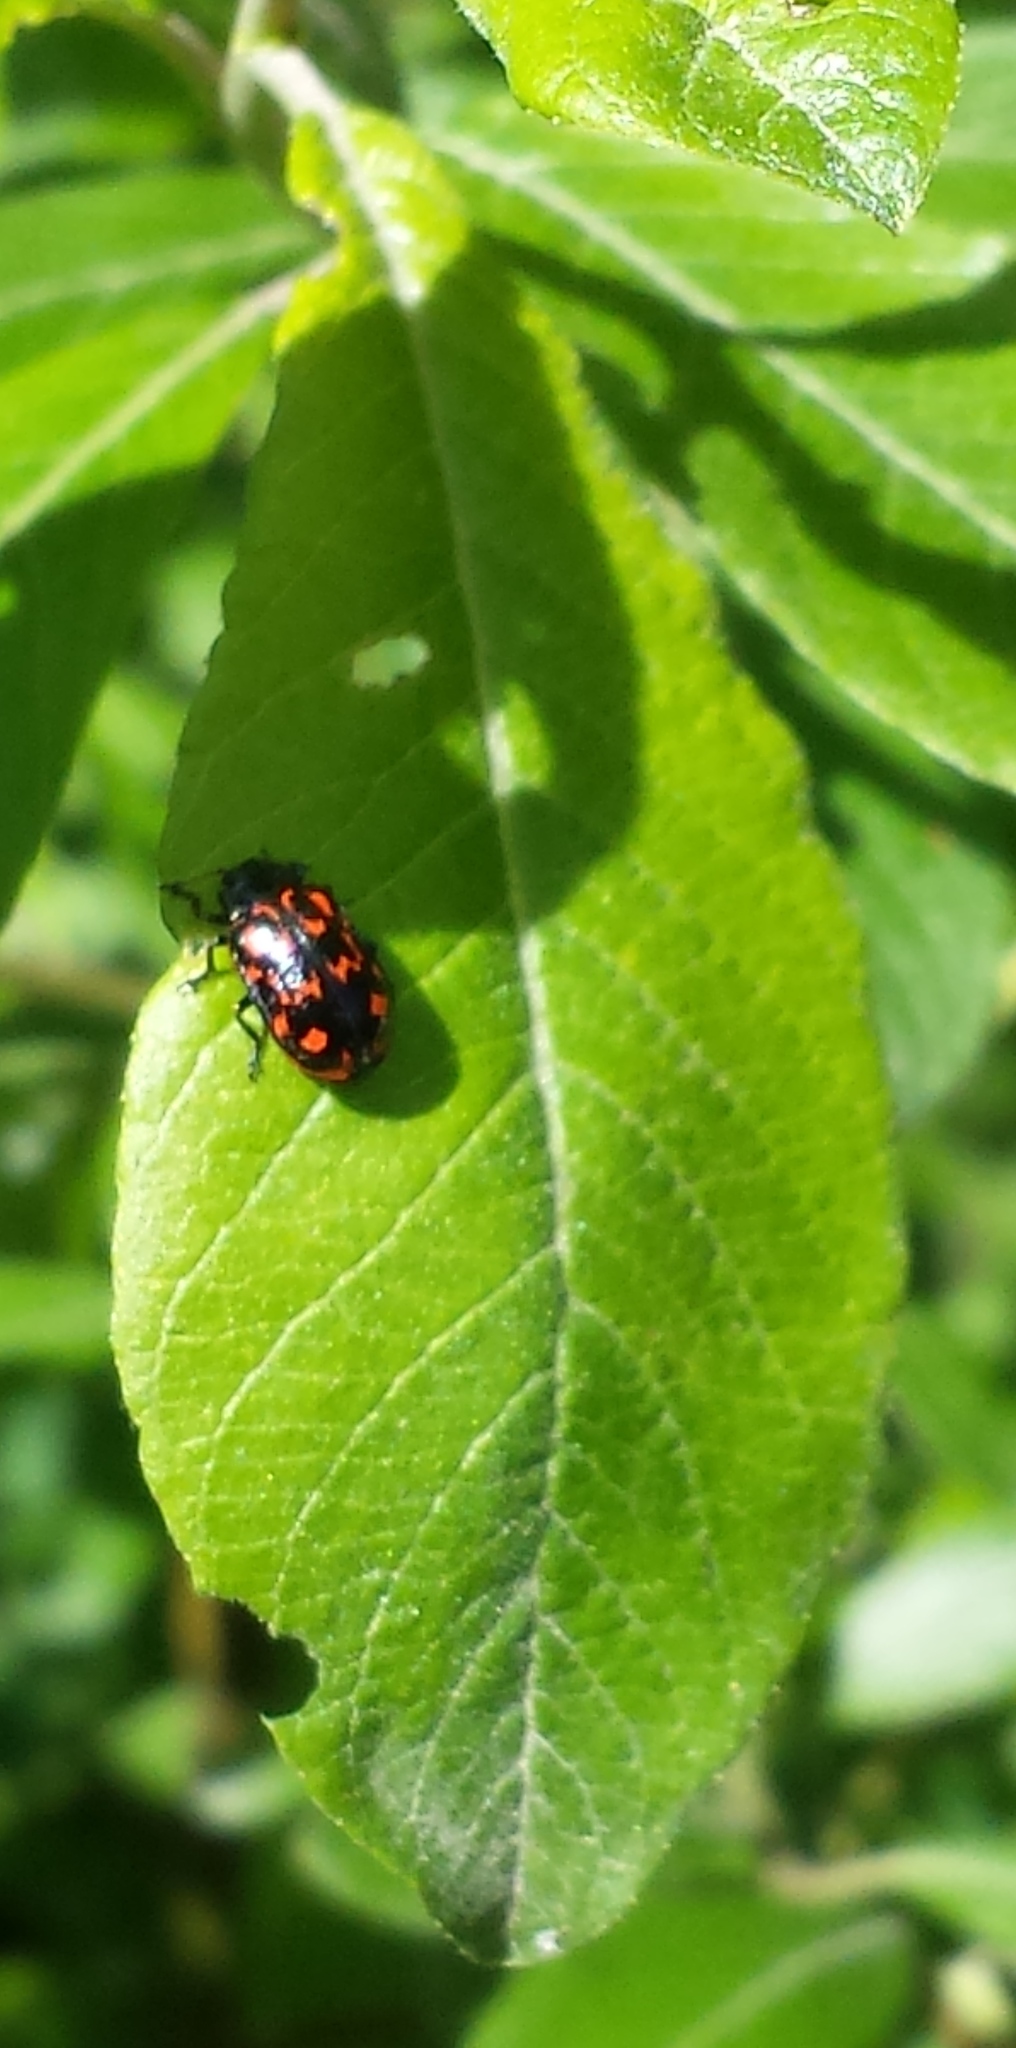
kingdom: Animalia
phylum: Arthropoda
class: Insecta
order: Coleoptera
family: Chrysomelidae
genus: Chrysomela
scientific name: Chrysomela aeneicollis
